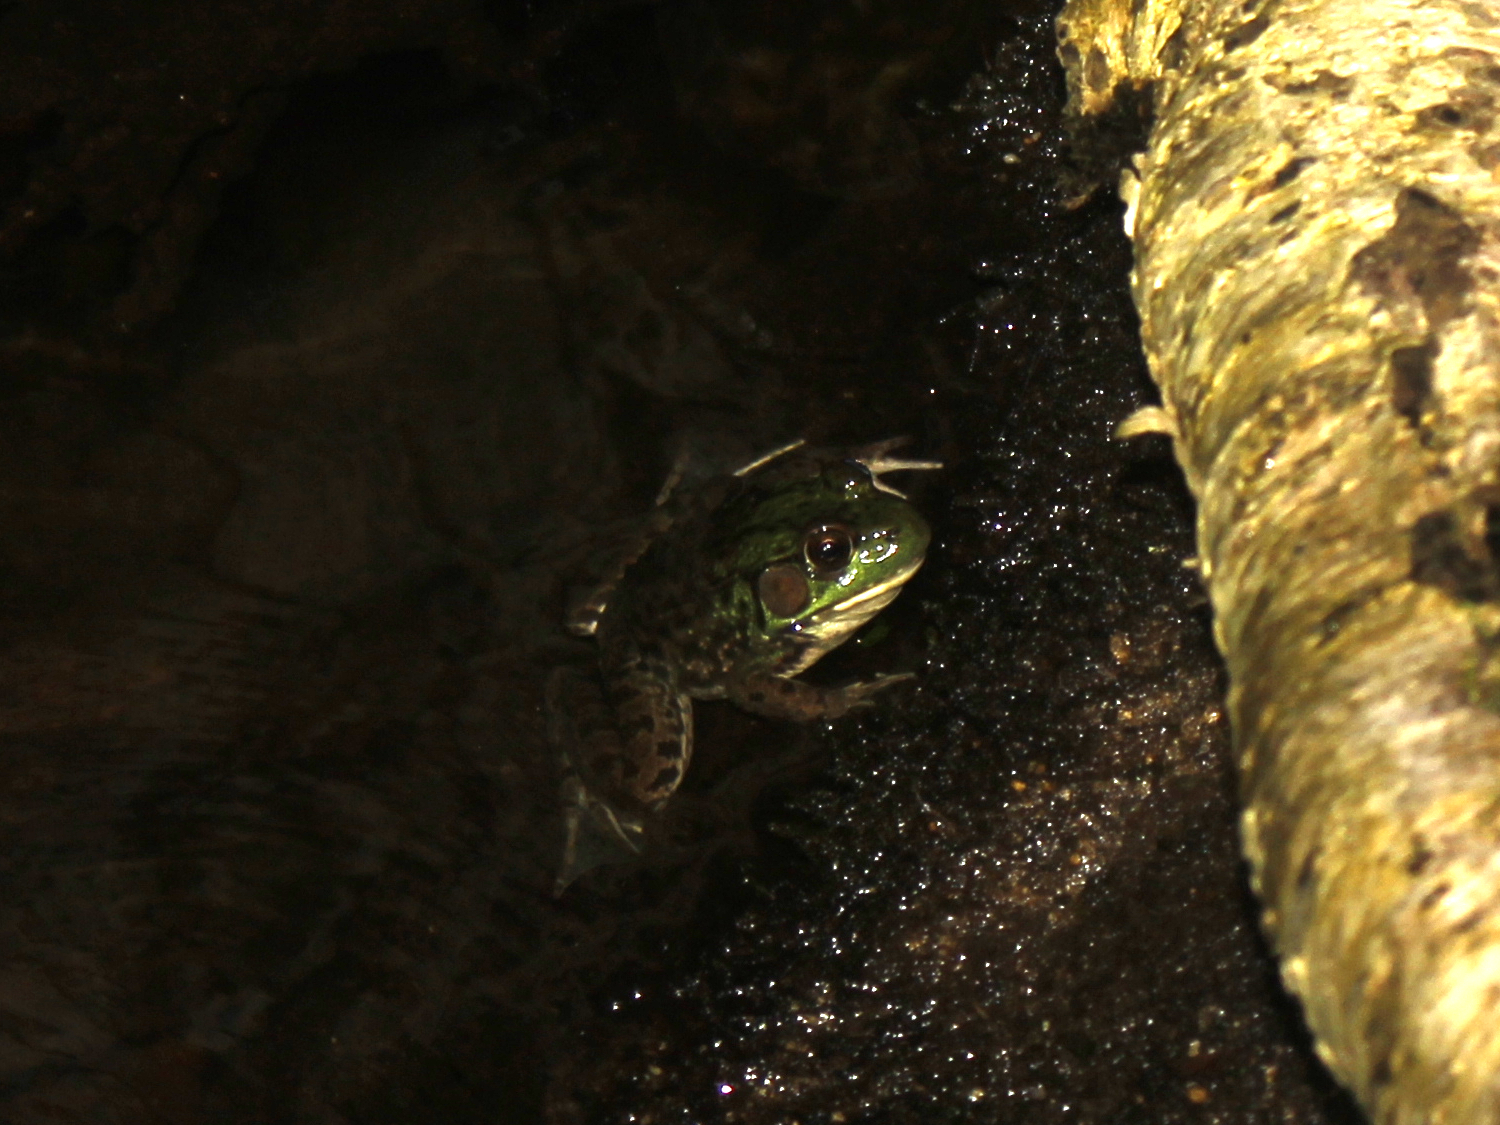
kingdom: Animalia
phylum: Chordata
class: Amphibia
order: Anura
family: Ranidae
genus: Lithobates
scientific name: Lithobates clamitans
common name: Green frog
